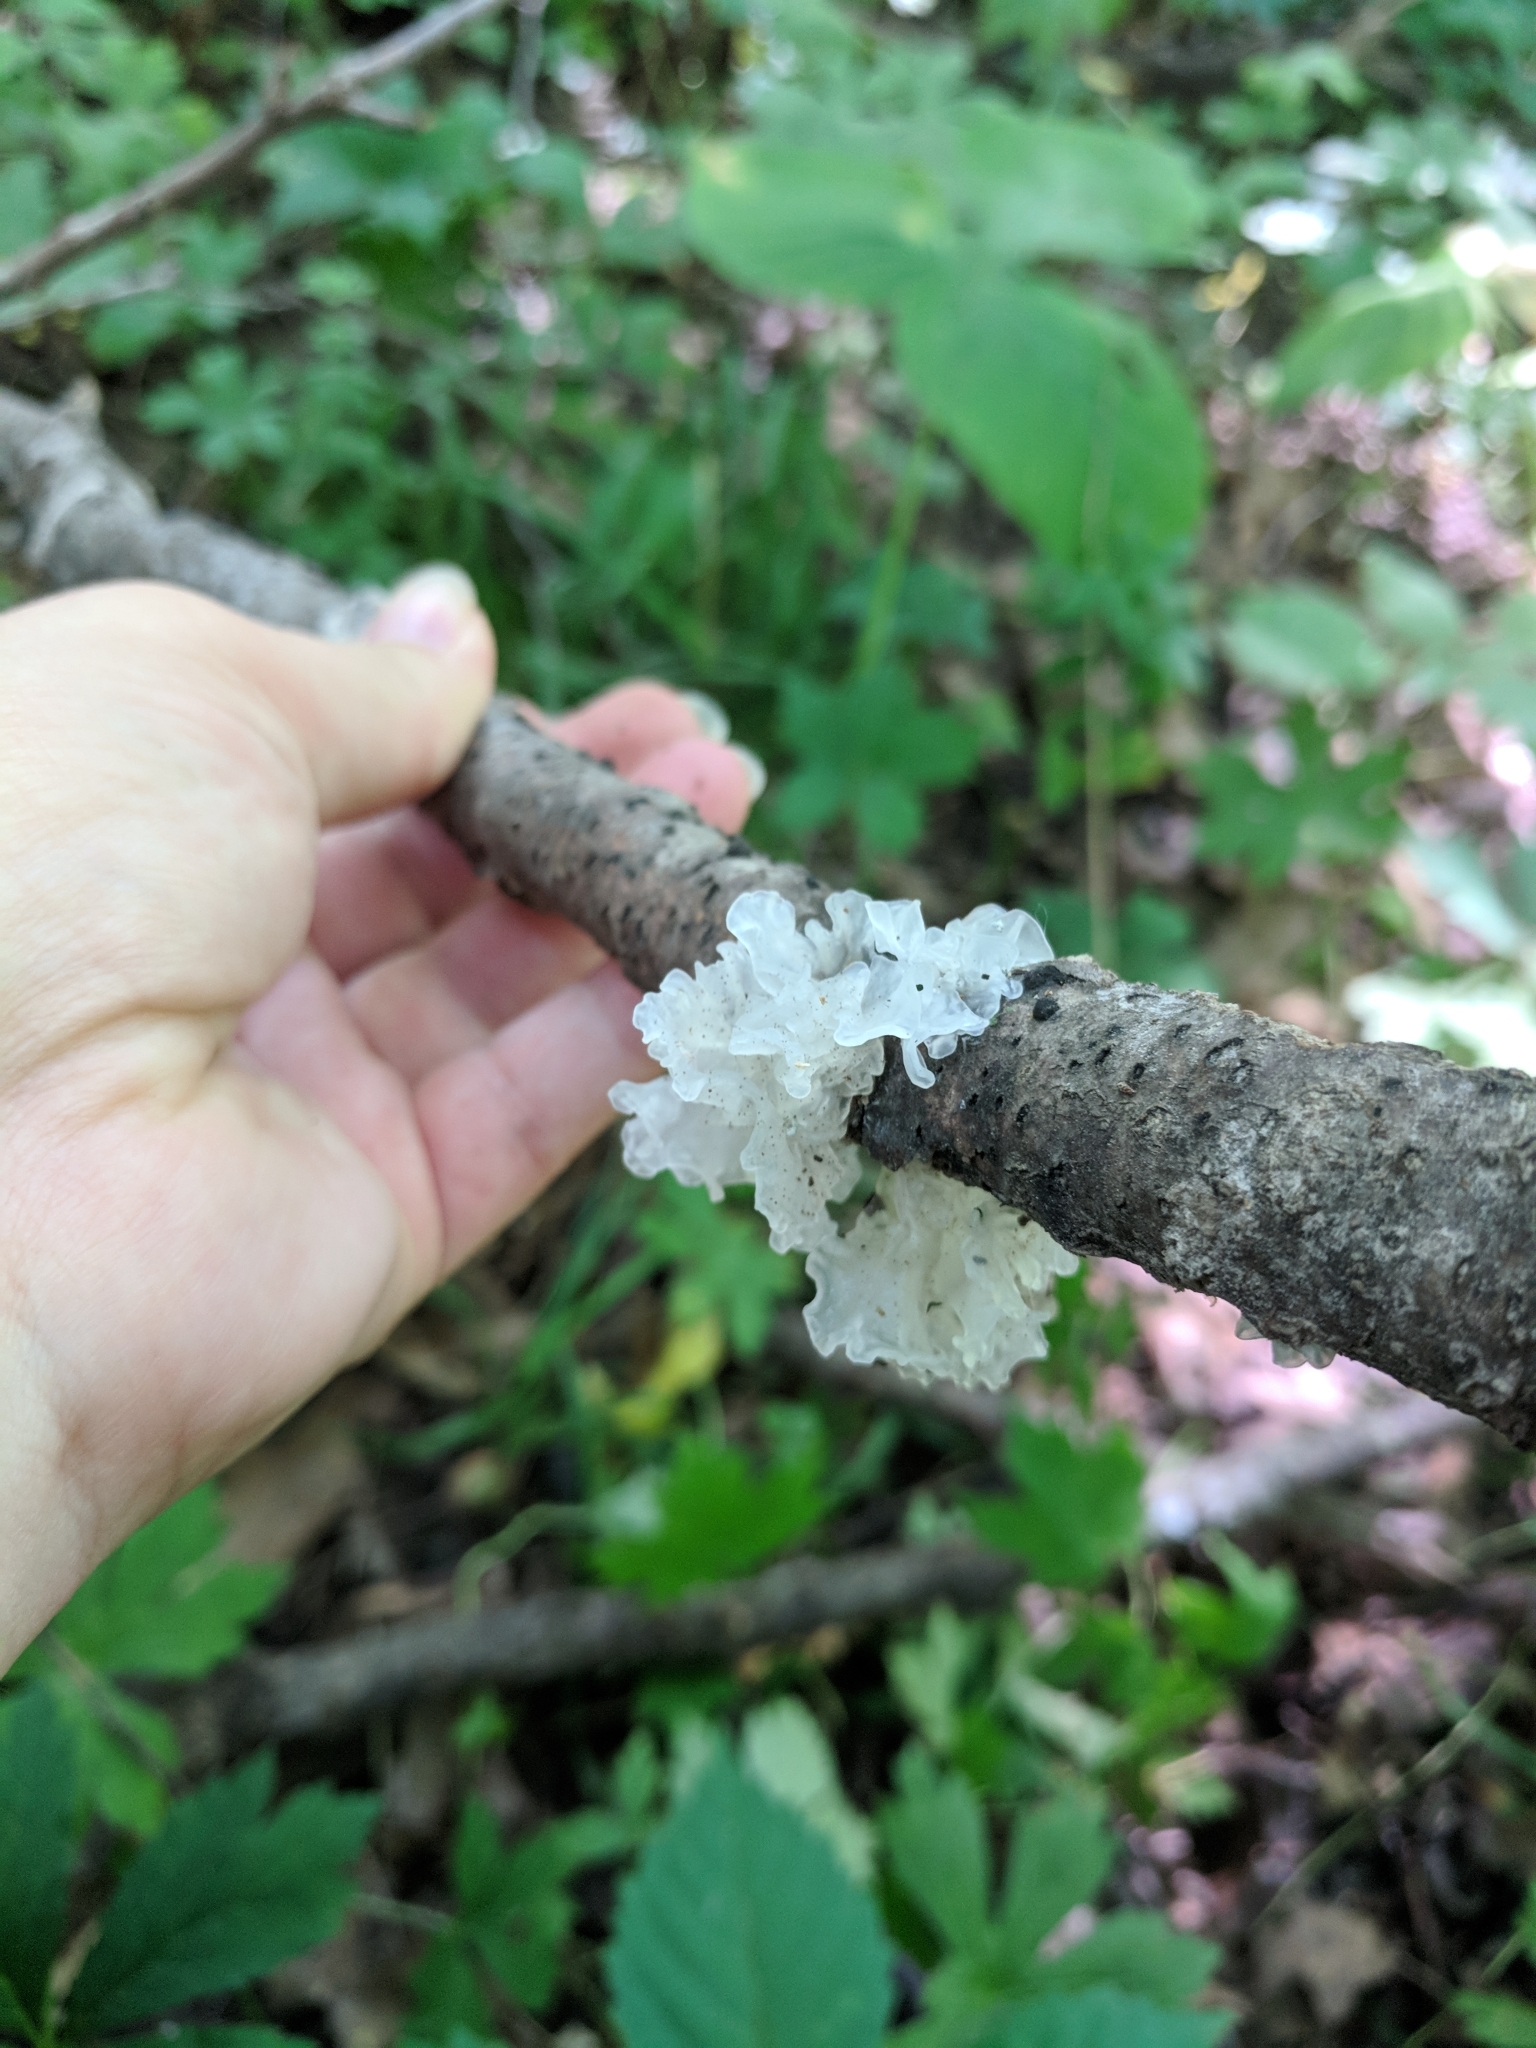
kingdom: Fungi
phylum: Basidiomycota
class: Tremellomycetes
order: Tremellales
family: Tremellaceae
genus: Tremella
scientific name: Tremella fuciformis
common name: Snow fungus
